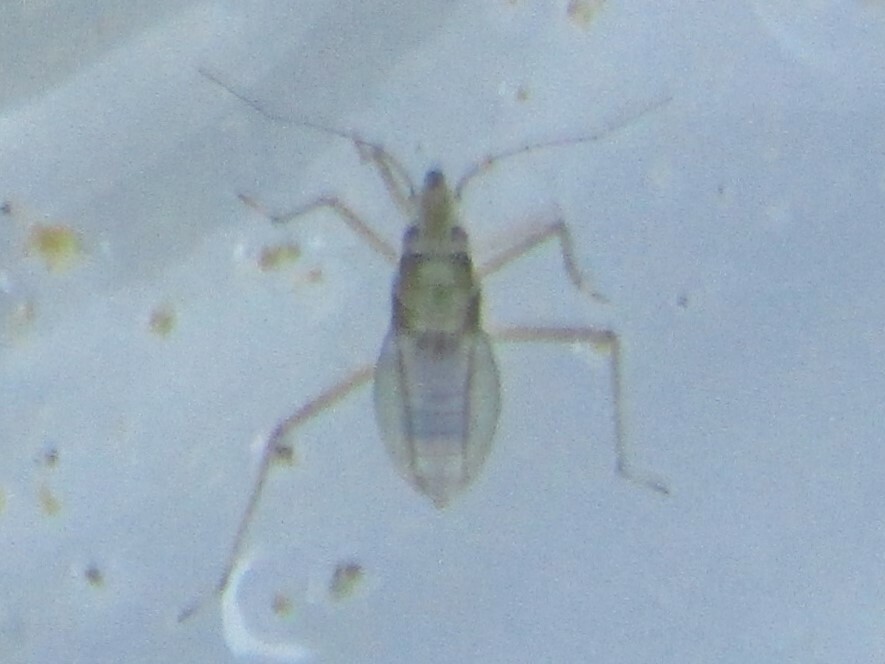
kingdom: Animalia
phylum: Arthropoda
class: Insecta
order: Hemiptera
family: Mesoveliidae
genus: Mesovelia
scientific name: Mesovelia
